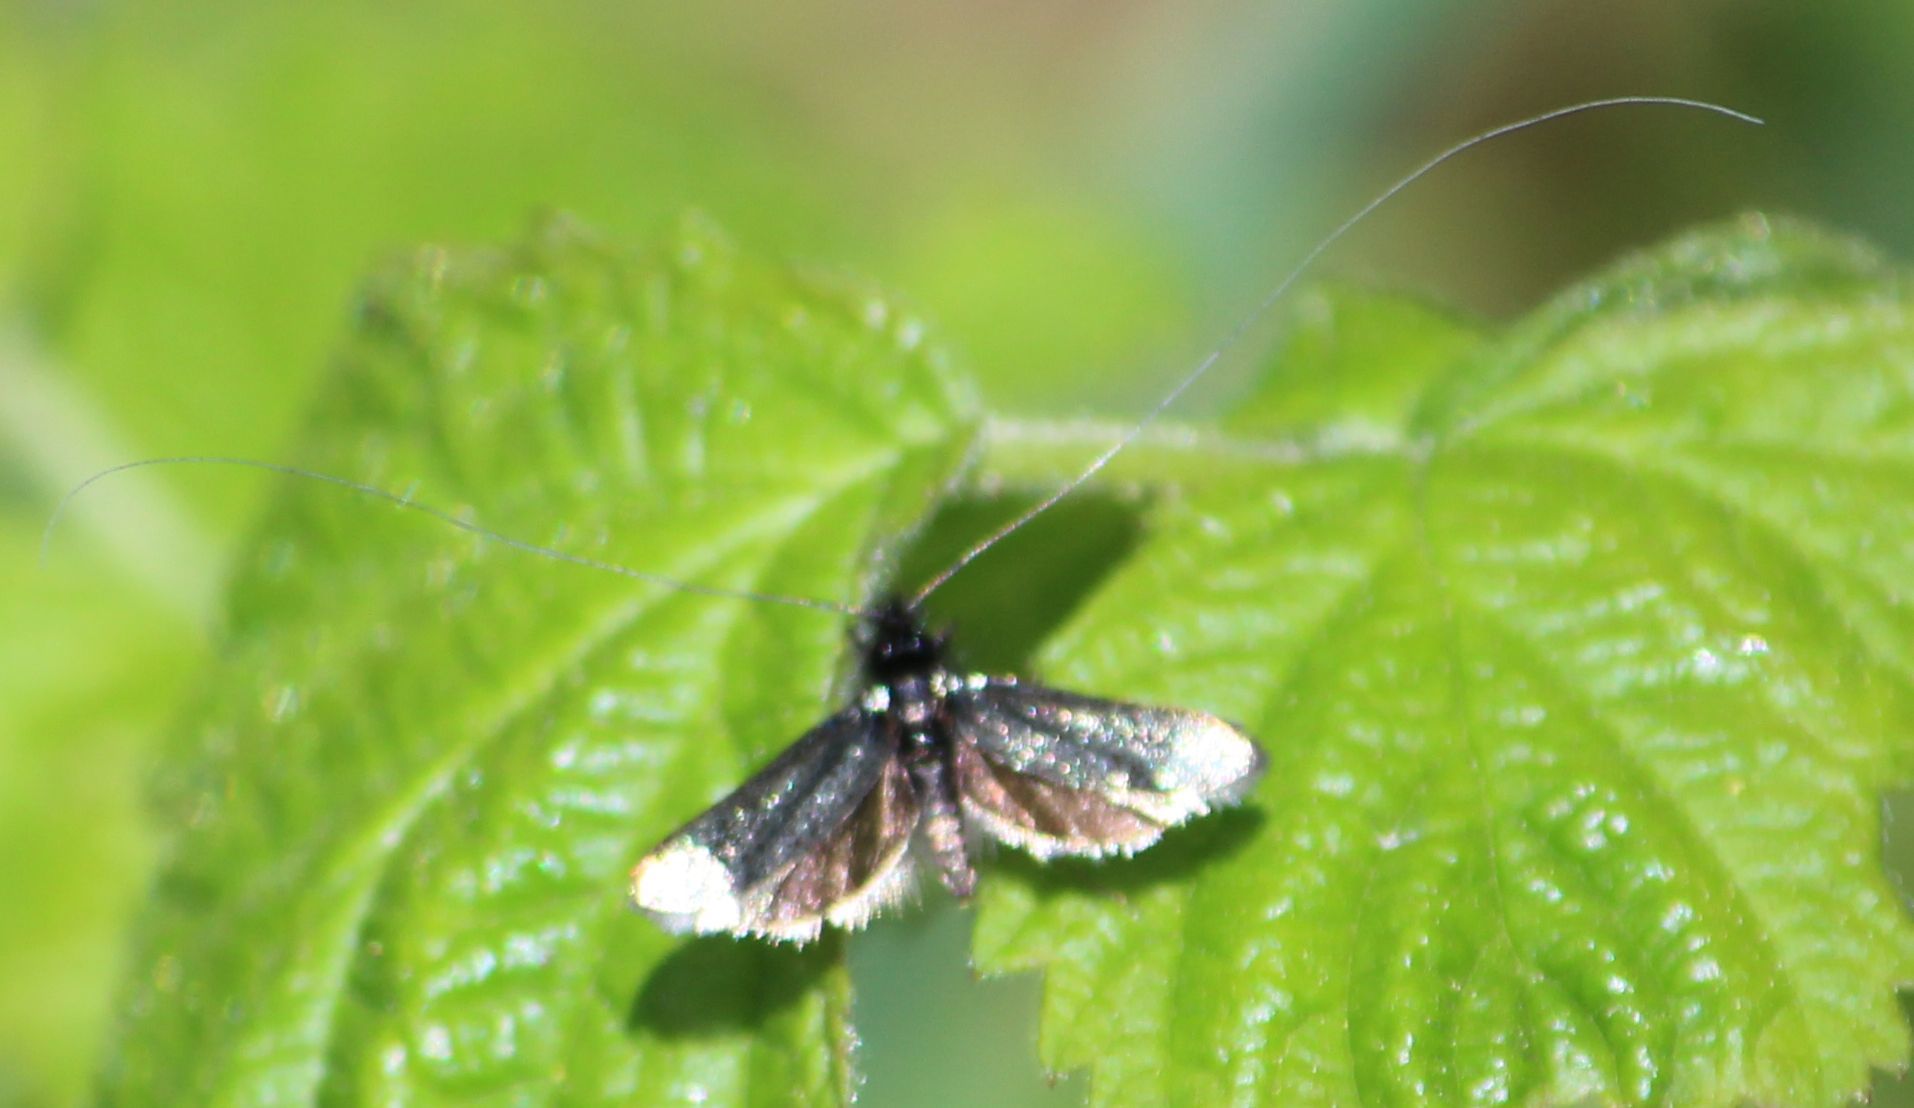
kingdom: Animalia
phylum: Arthropoda
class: Insecta
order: Lepidoptera
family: Adelidae
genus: Adela
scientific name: Adela viridella
